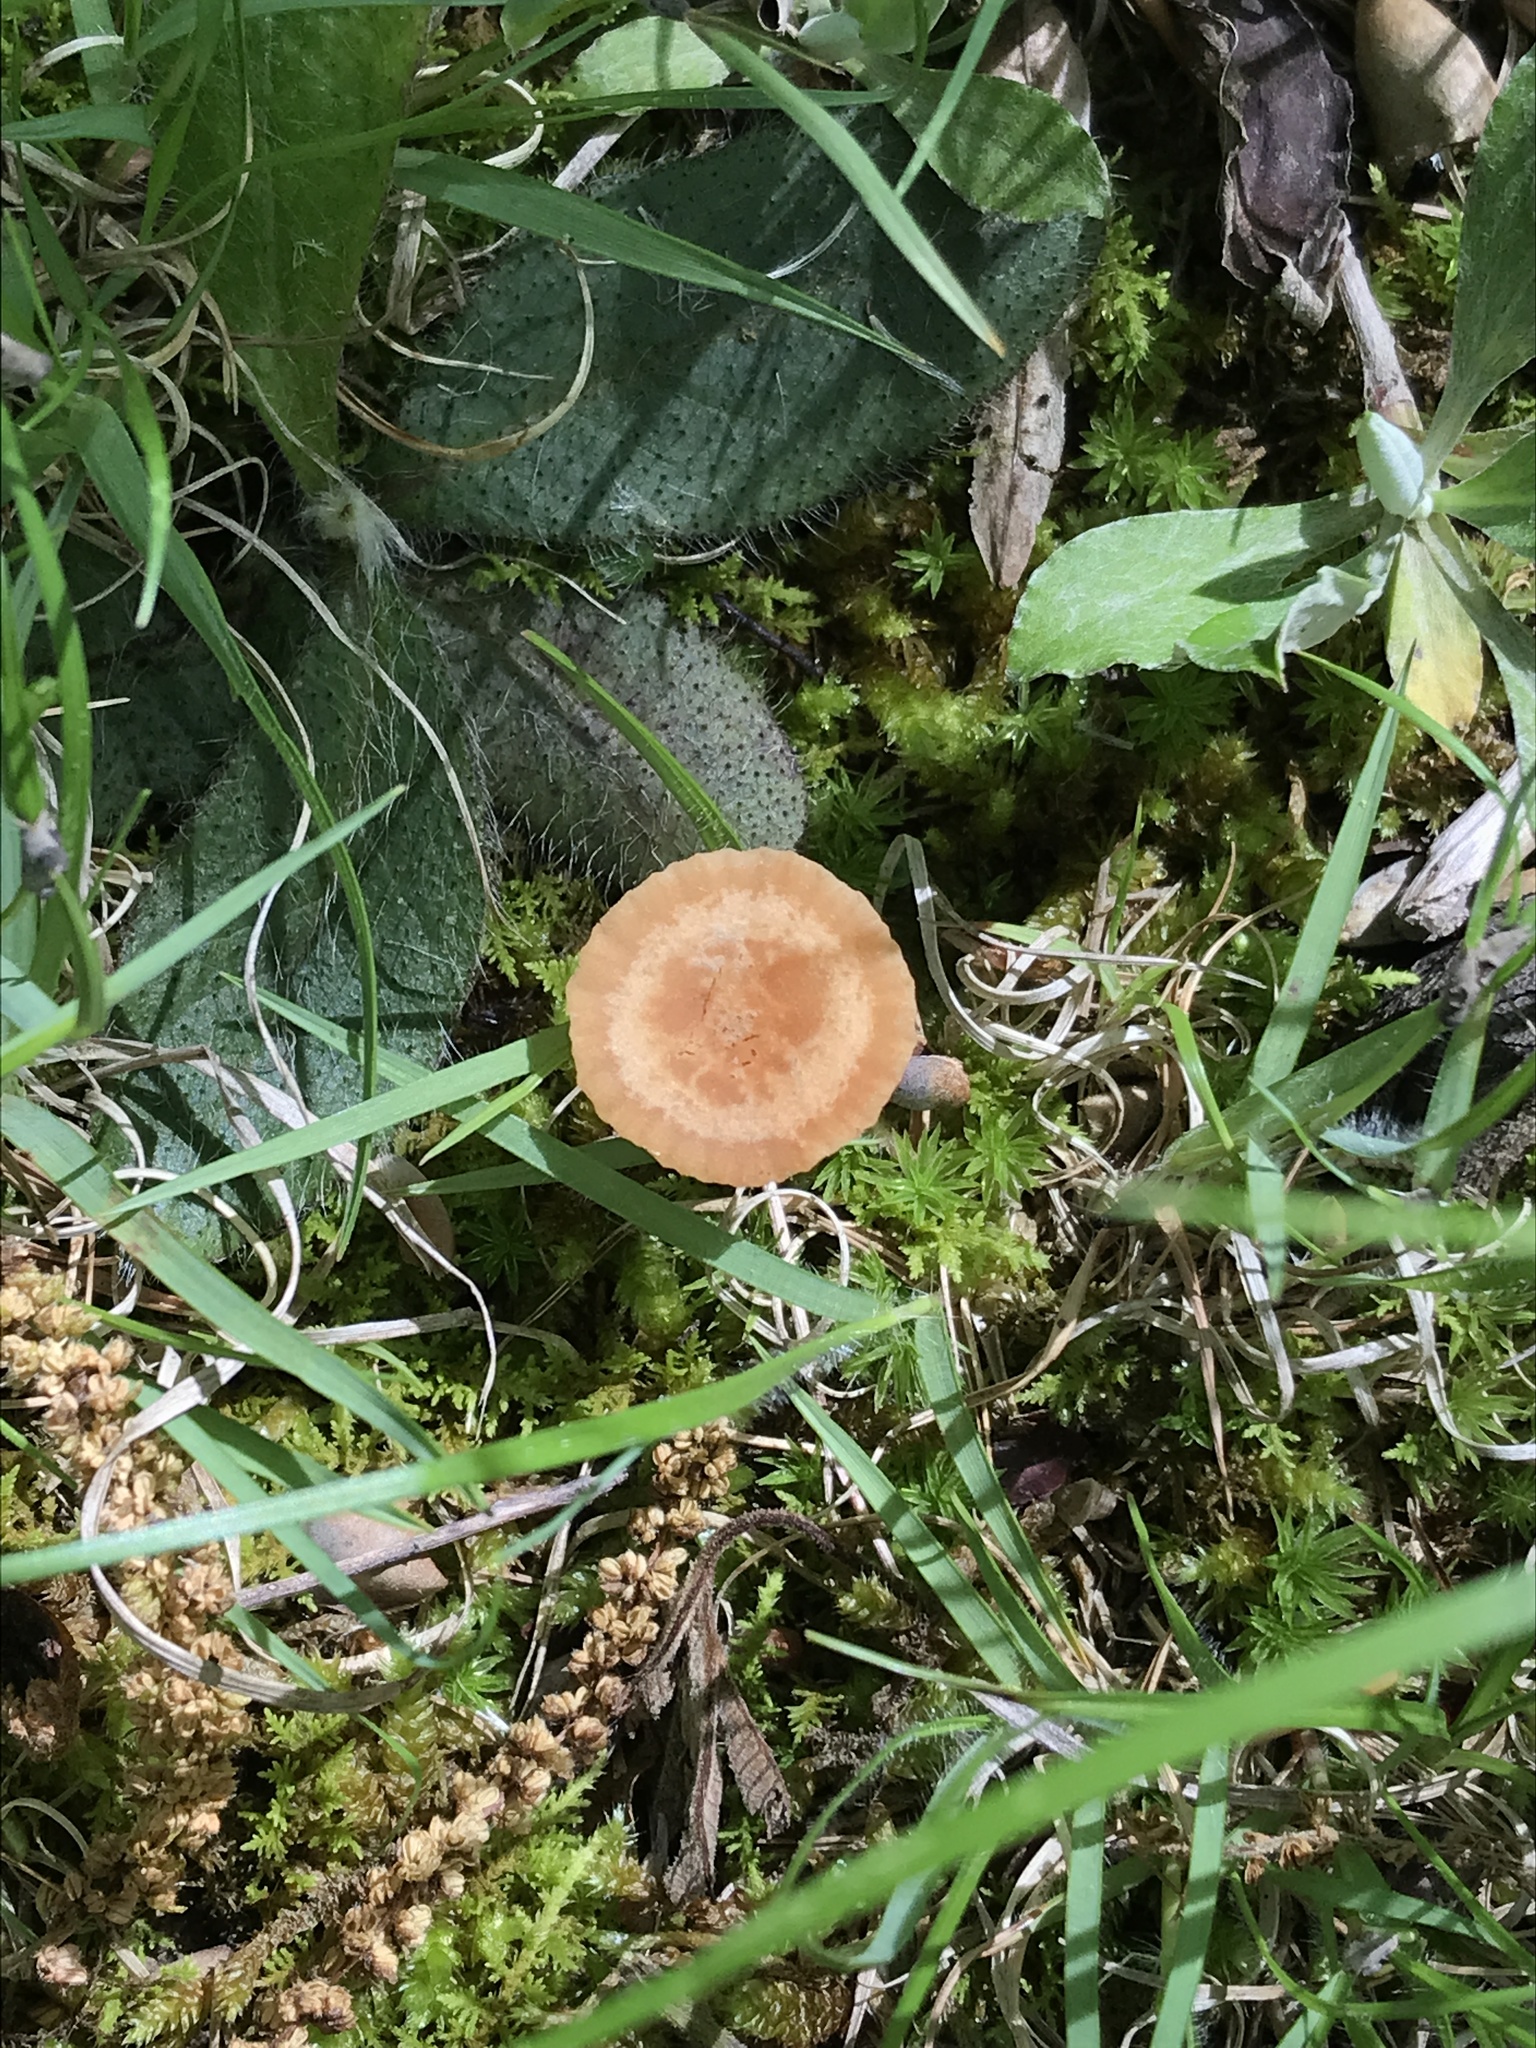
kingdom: Fungi
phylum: Basidiomycota
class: Agaricomycetes
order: Agaricales
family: Hydnangiaceae
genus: Laccaria
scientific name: Laccaria laccata
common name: Deceiver
